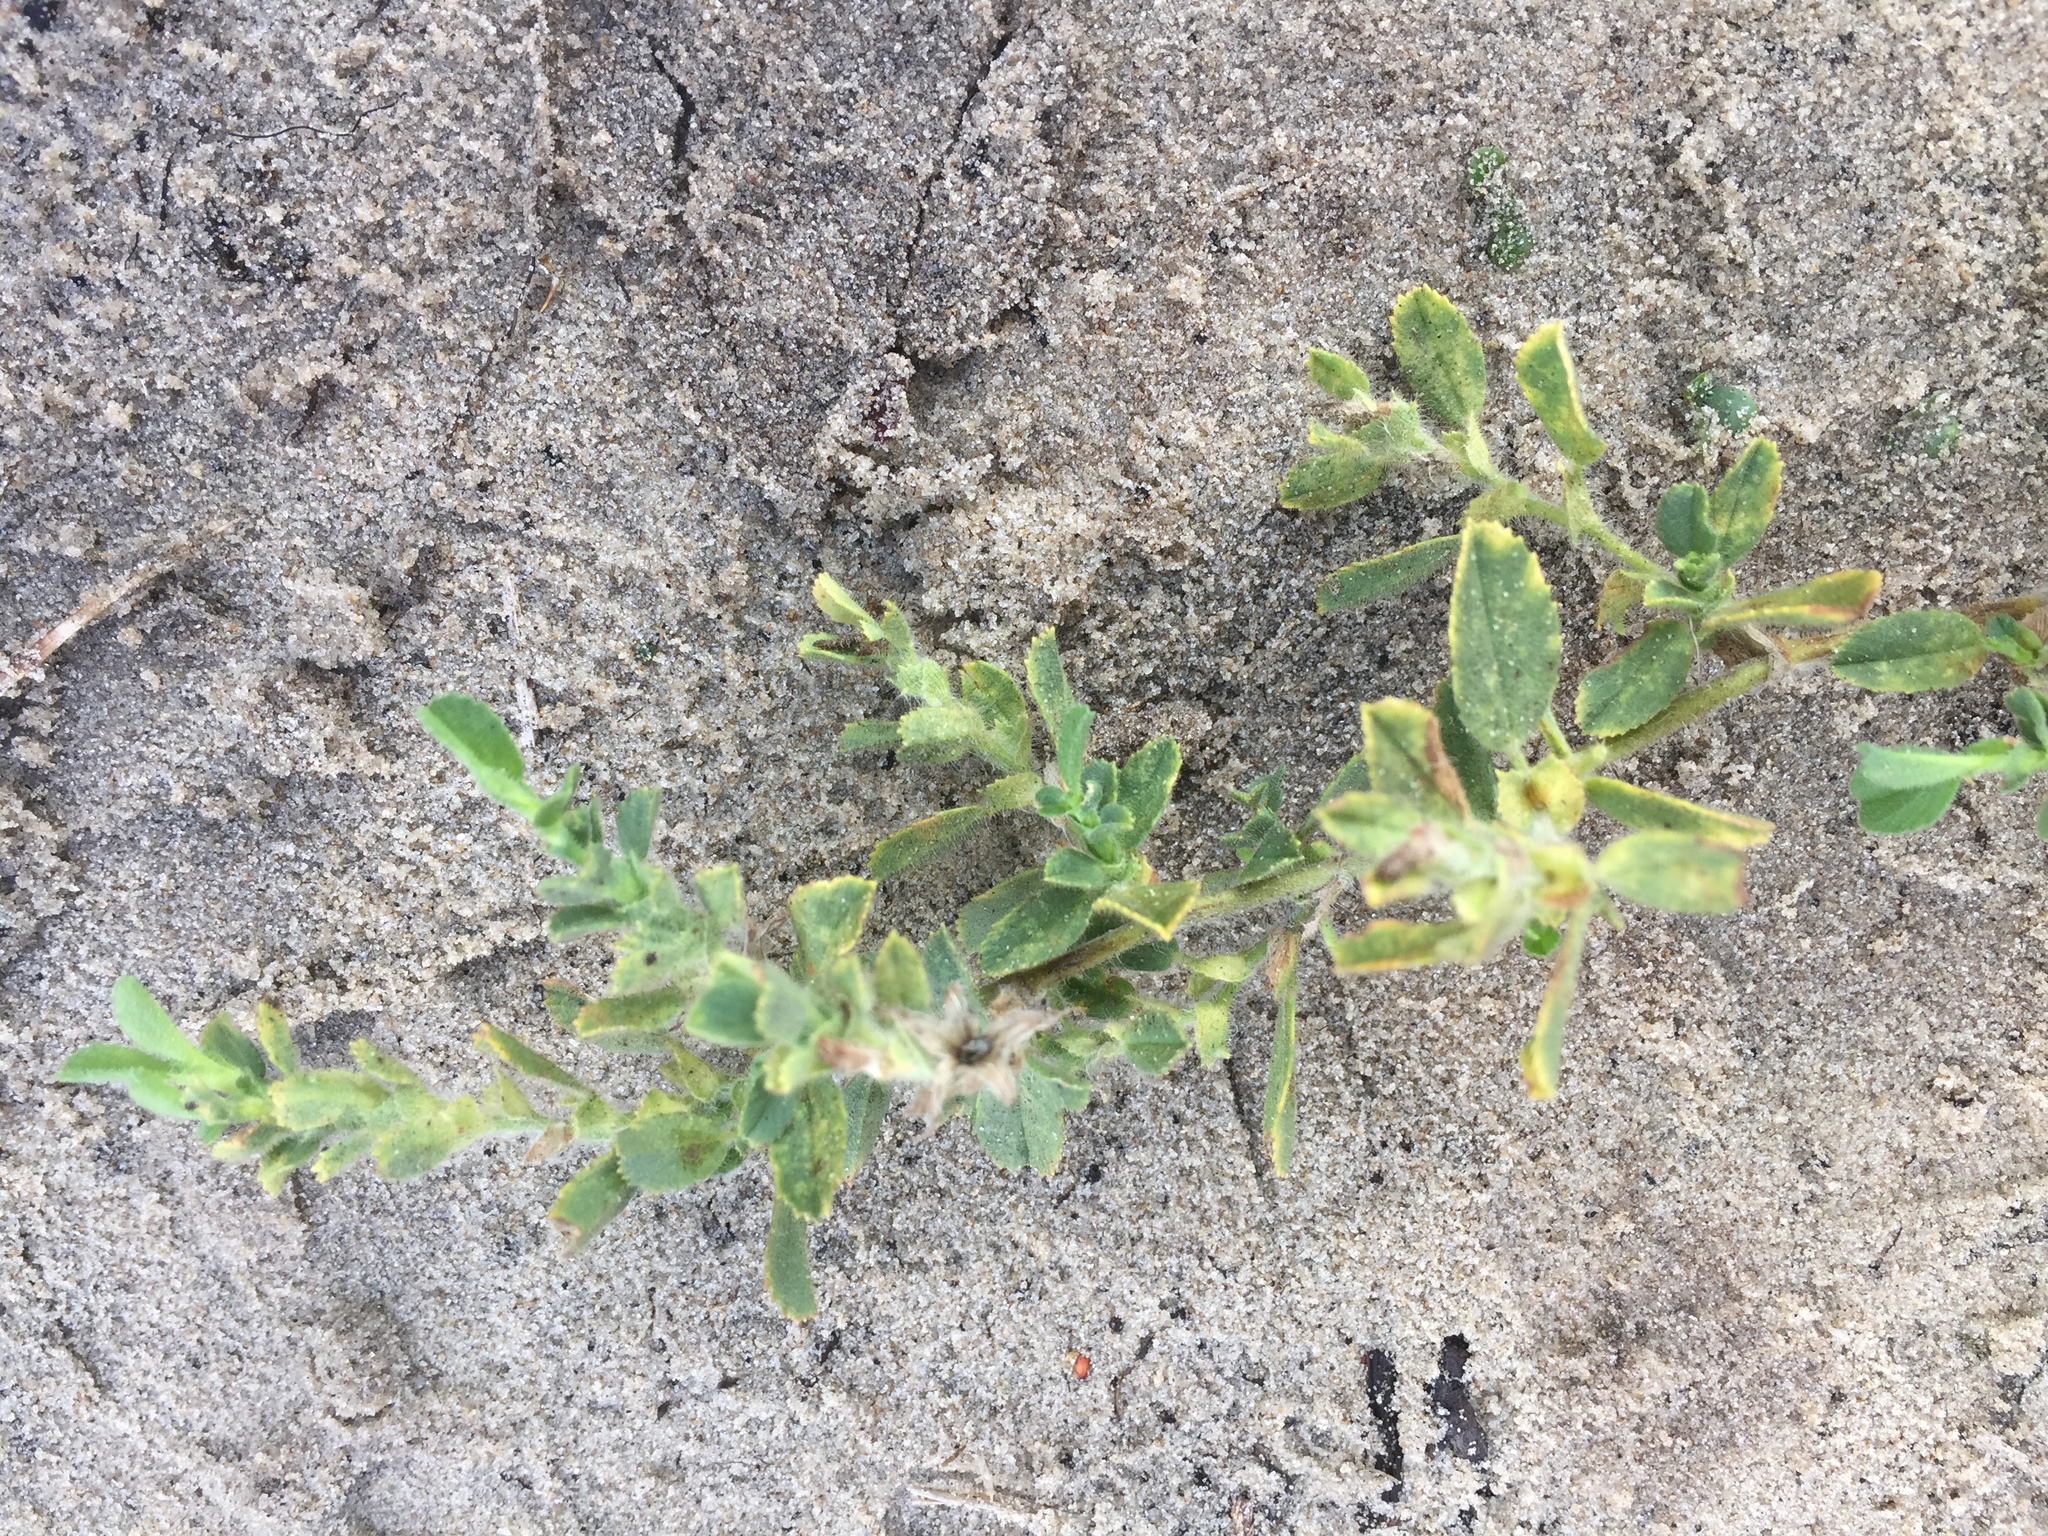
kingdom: Plantae
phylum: Tracheophyta
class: Magnoliopsida
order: Fabales
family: Fabaceae
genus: Ononis
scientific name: Ononis spinosa
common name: Spiny restharrow
